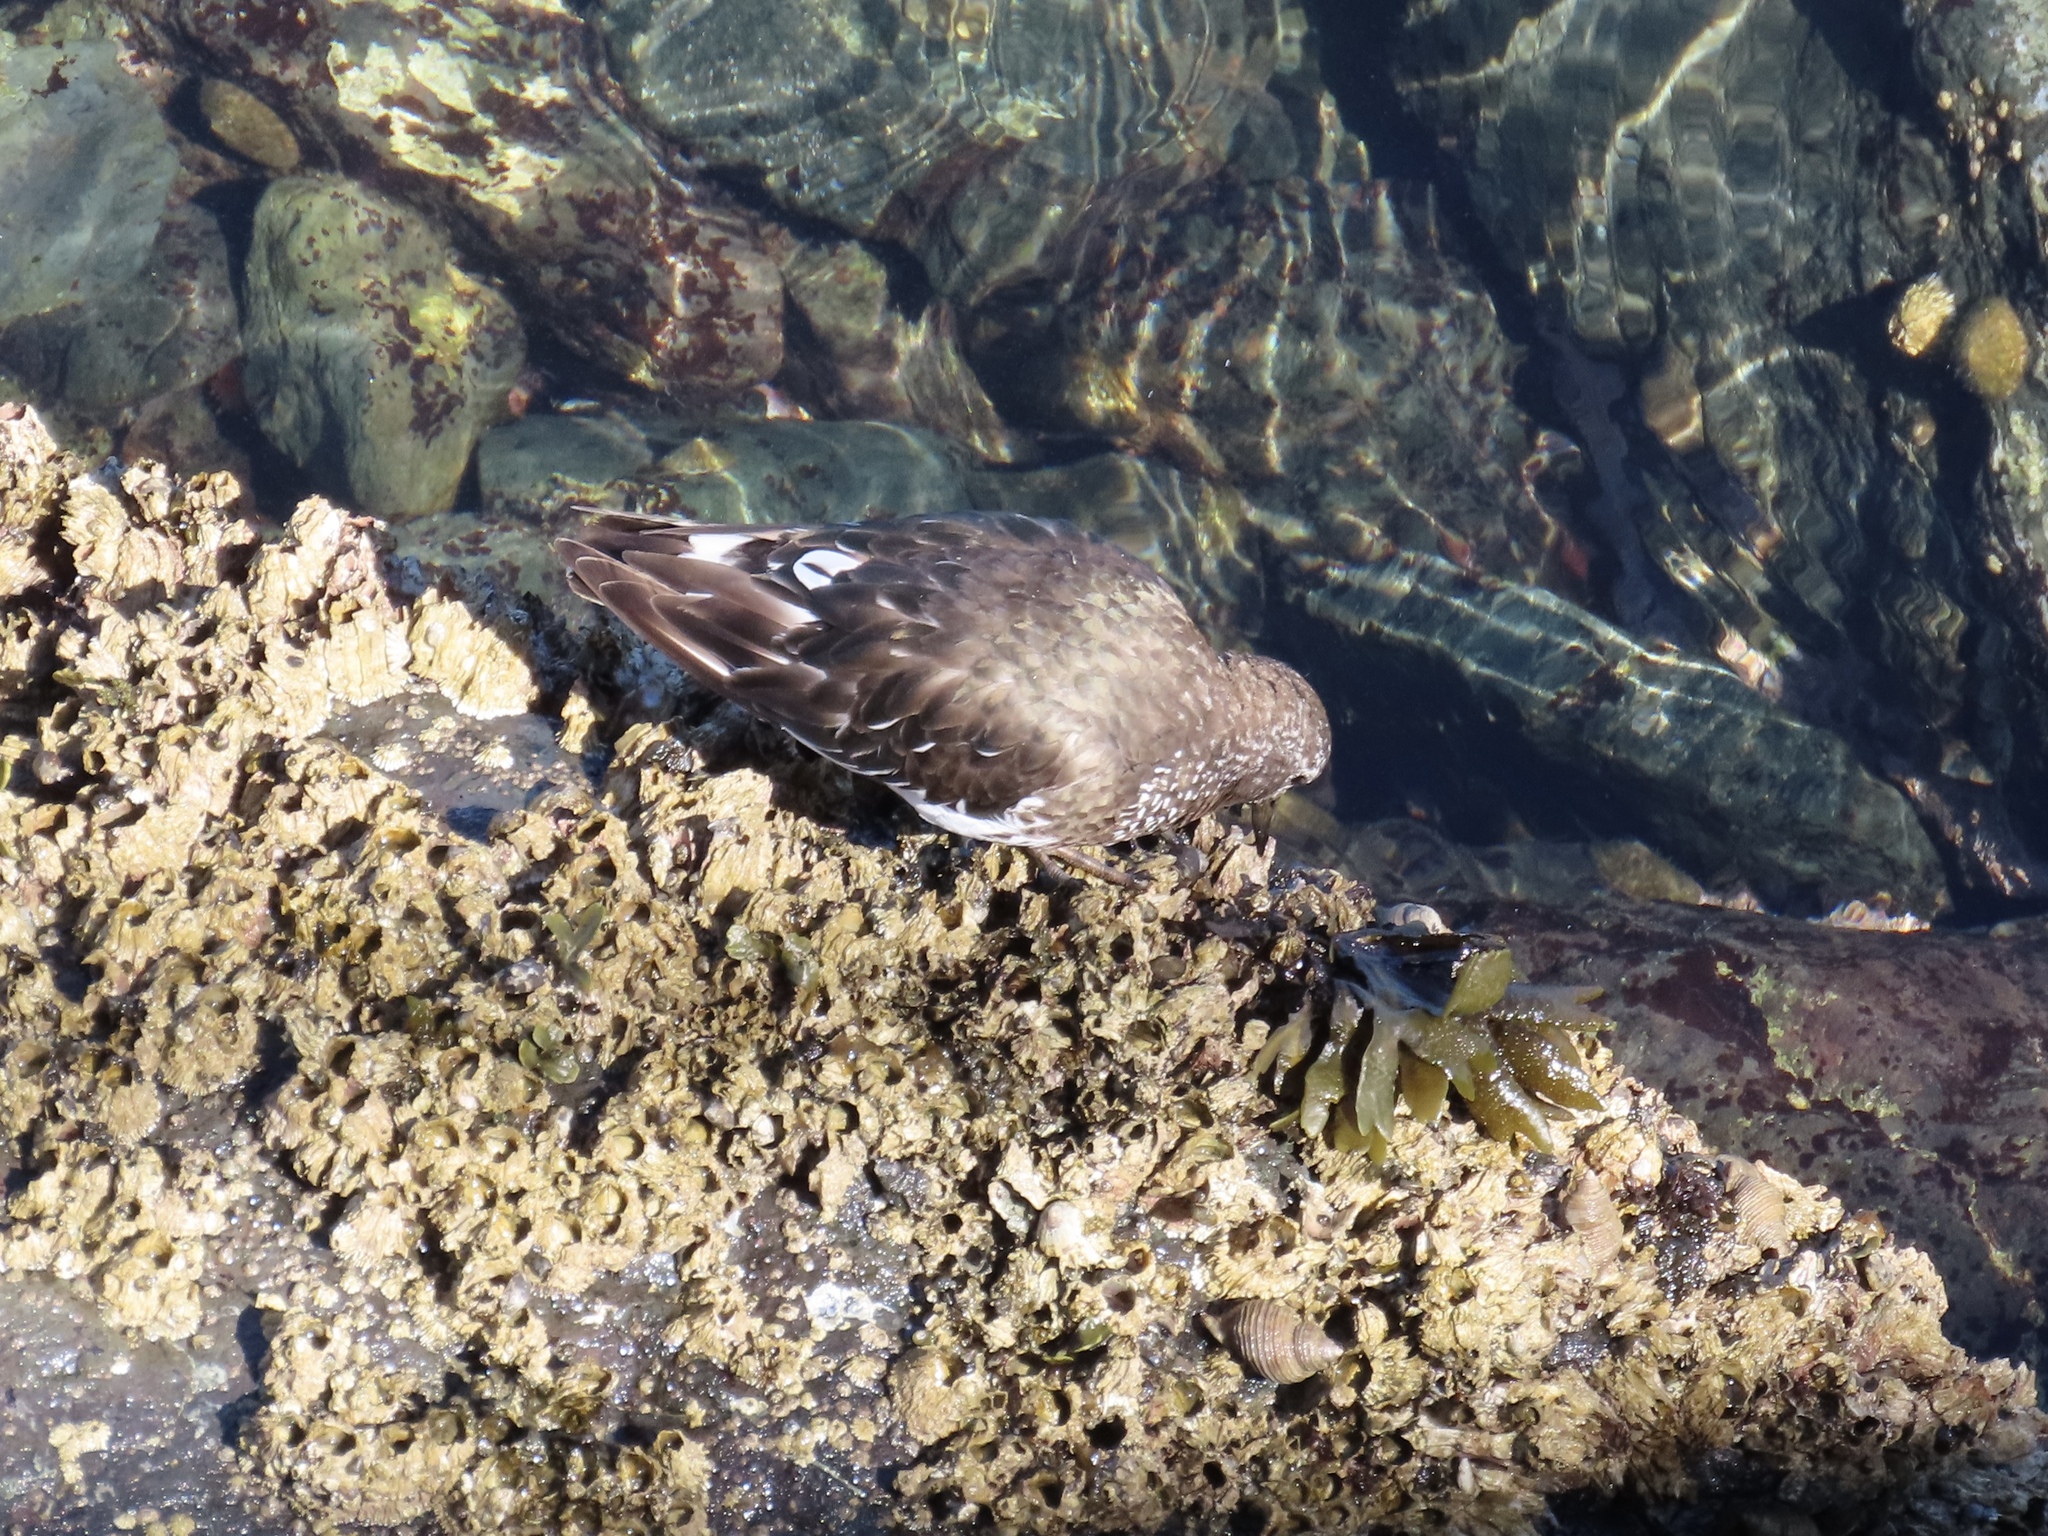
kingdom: Animalia
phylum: Chordata
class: Aves
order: Charadriiformes
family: Scolopacidae
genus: Arenaria
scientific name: Arenaria melanocephala
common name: Black turnstone
